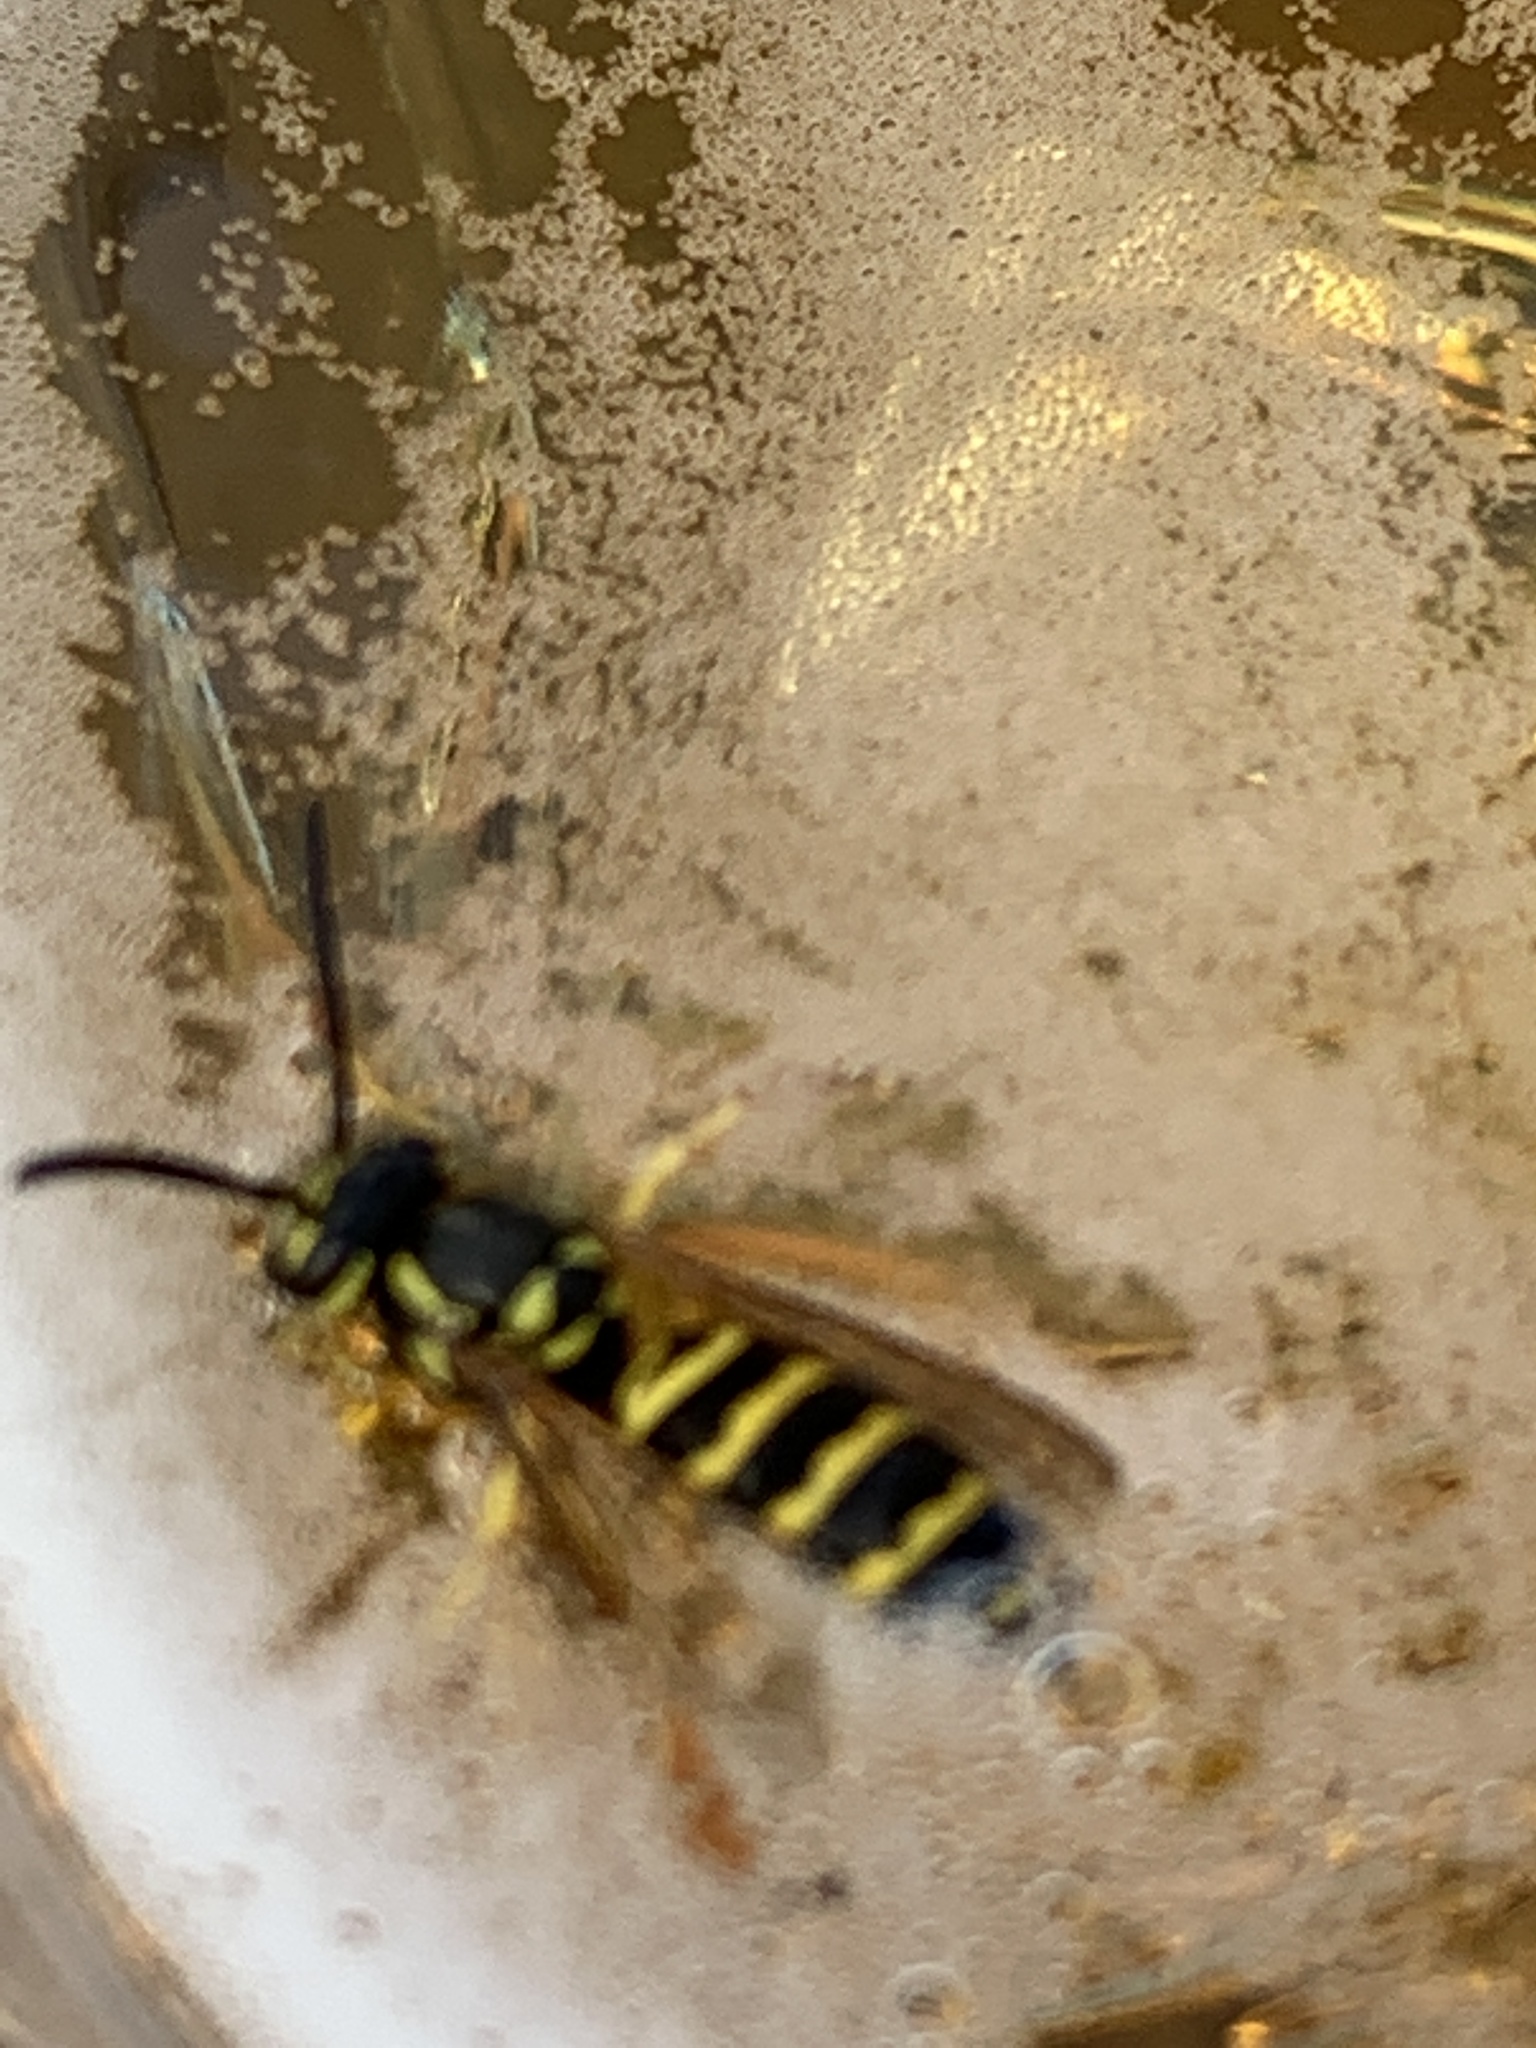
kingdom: Animalia
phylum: Arthropoda
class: Insecta
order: Hymenoptera
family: Vespidae
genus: Vespula
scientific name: Vespula maculifrons
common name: Eastern yellowjacket
